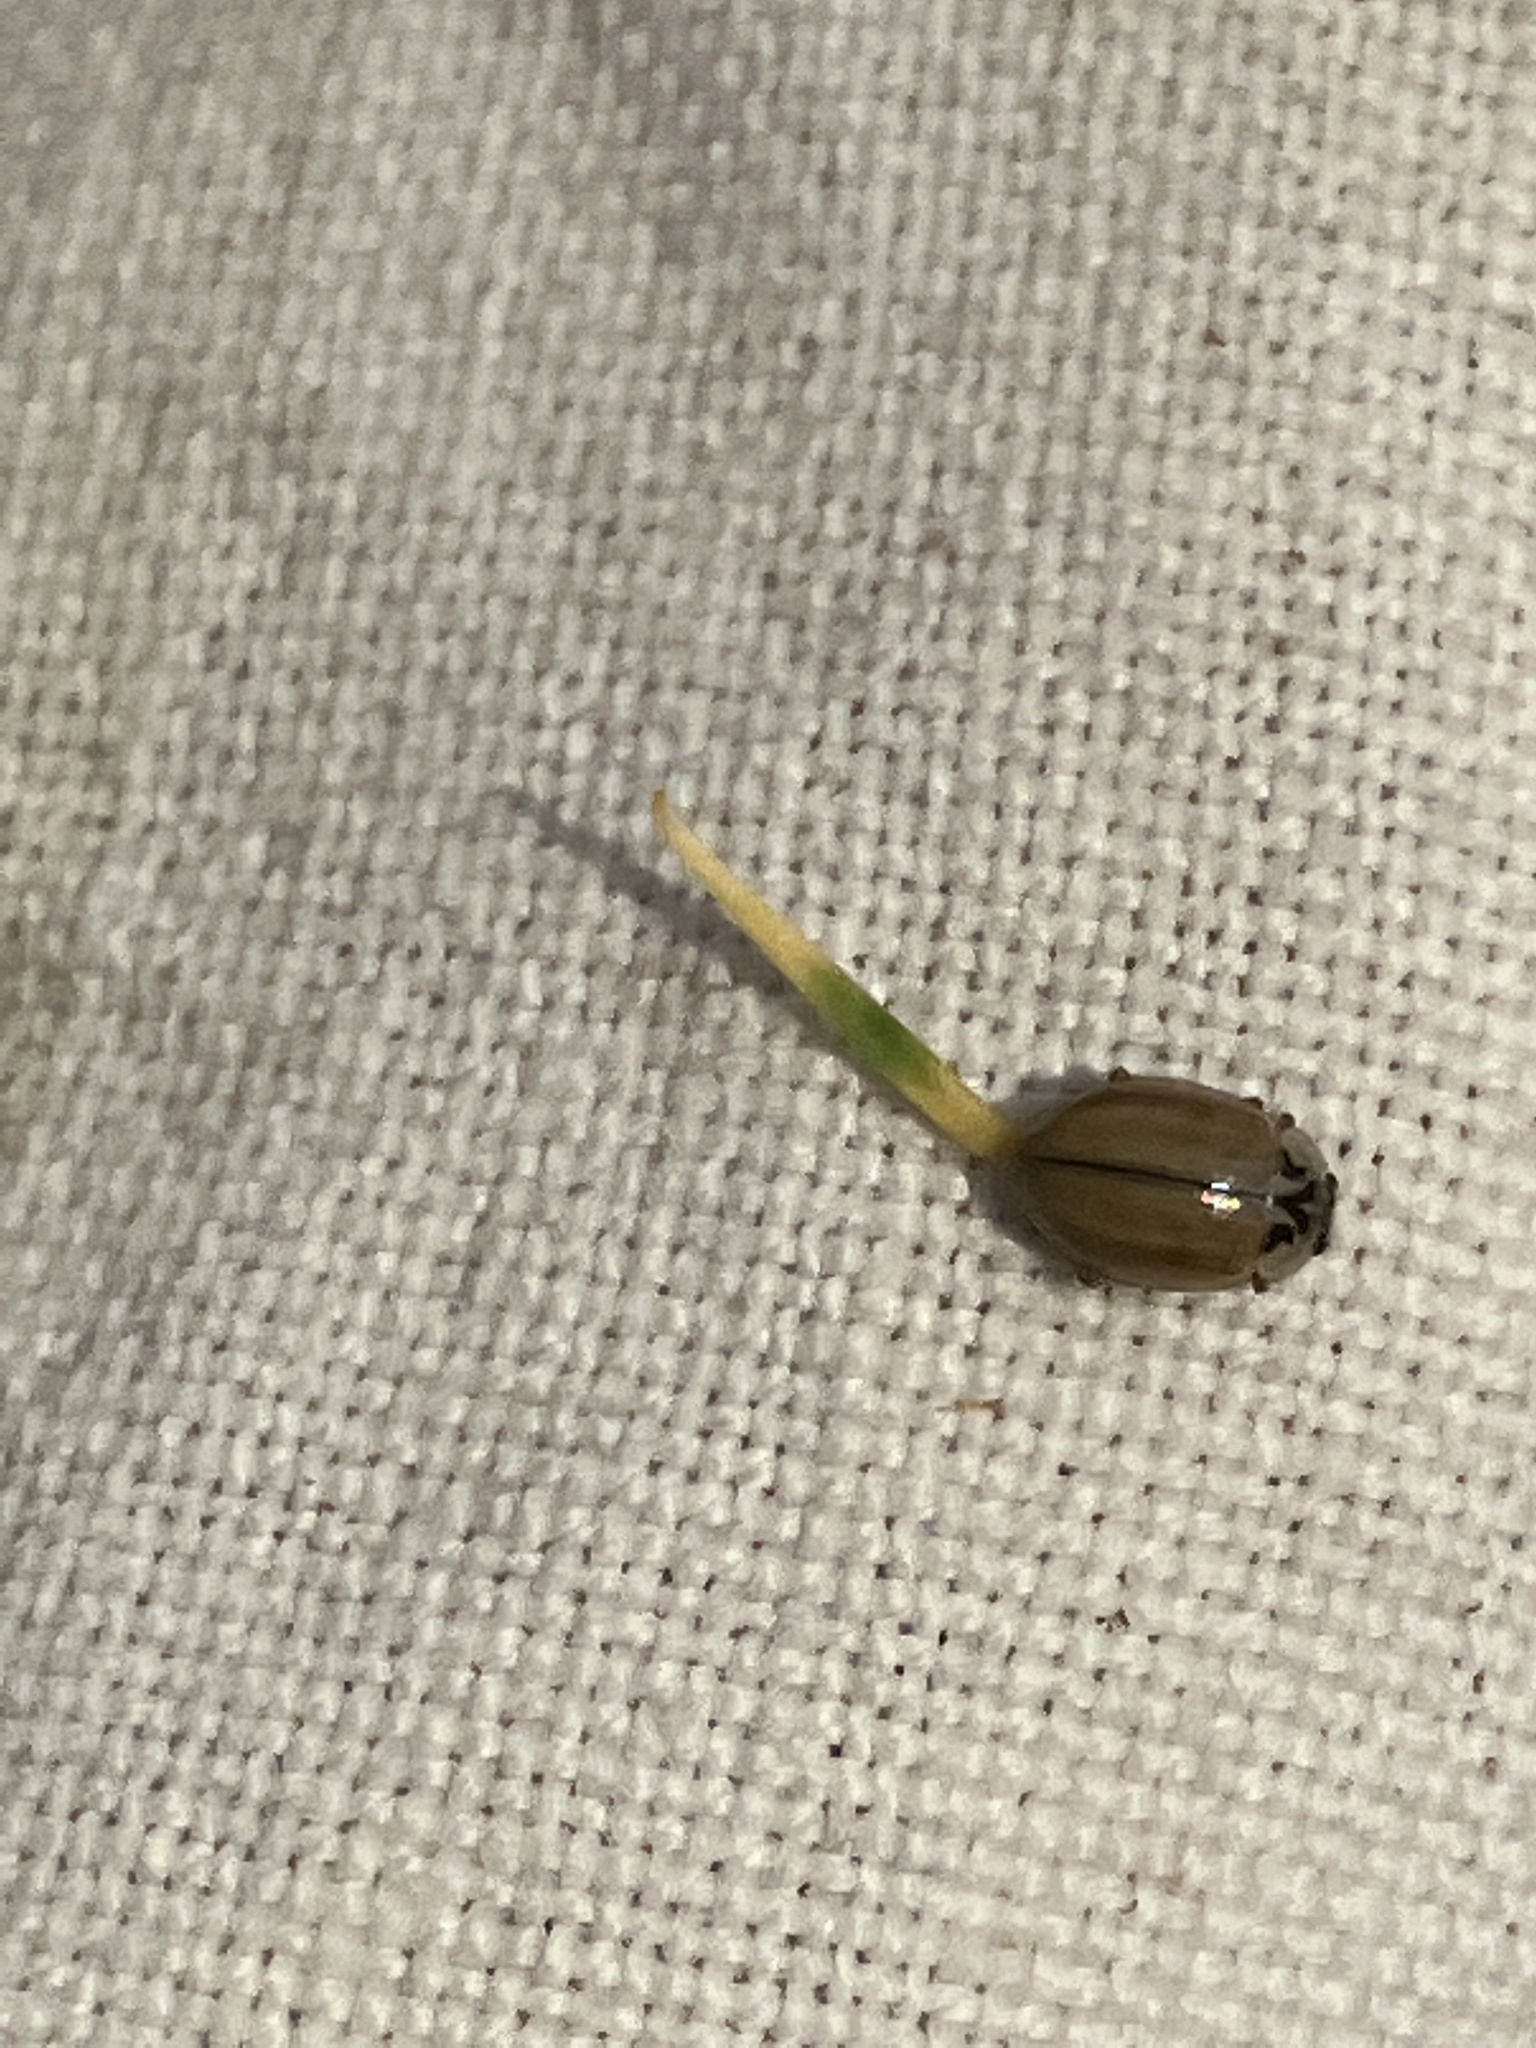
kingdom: Animalia
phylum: Arthropoda
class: Insecta
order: Coleoptera
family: Coccinellidae
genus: Aphidecta
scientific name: Aphidecta obliterata
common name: Larch ladybird
